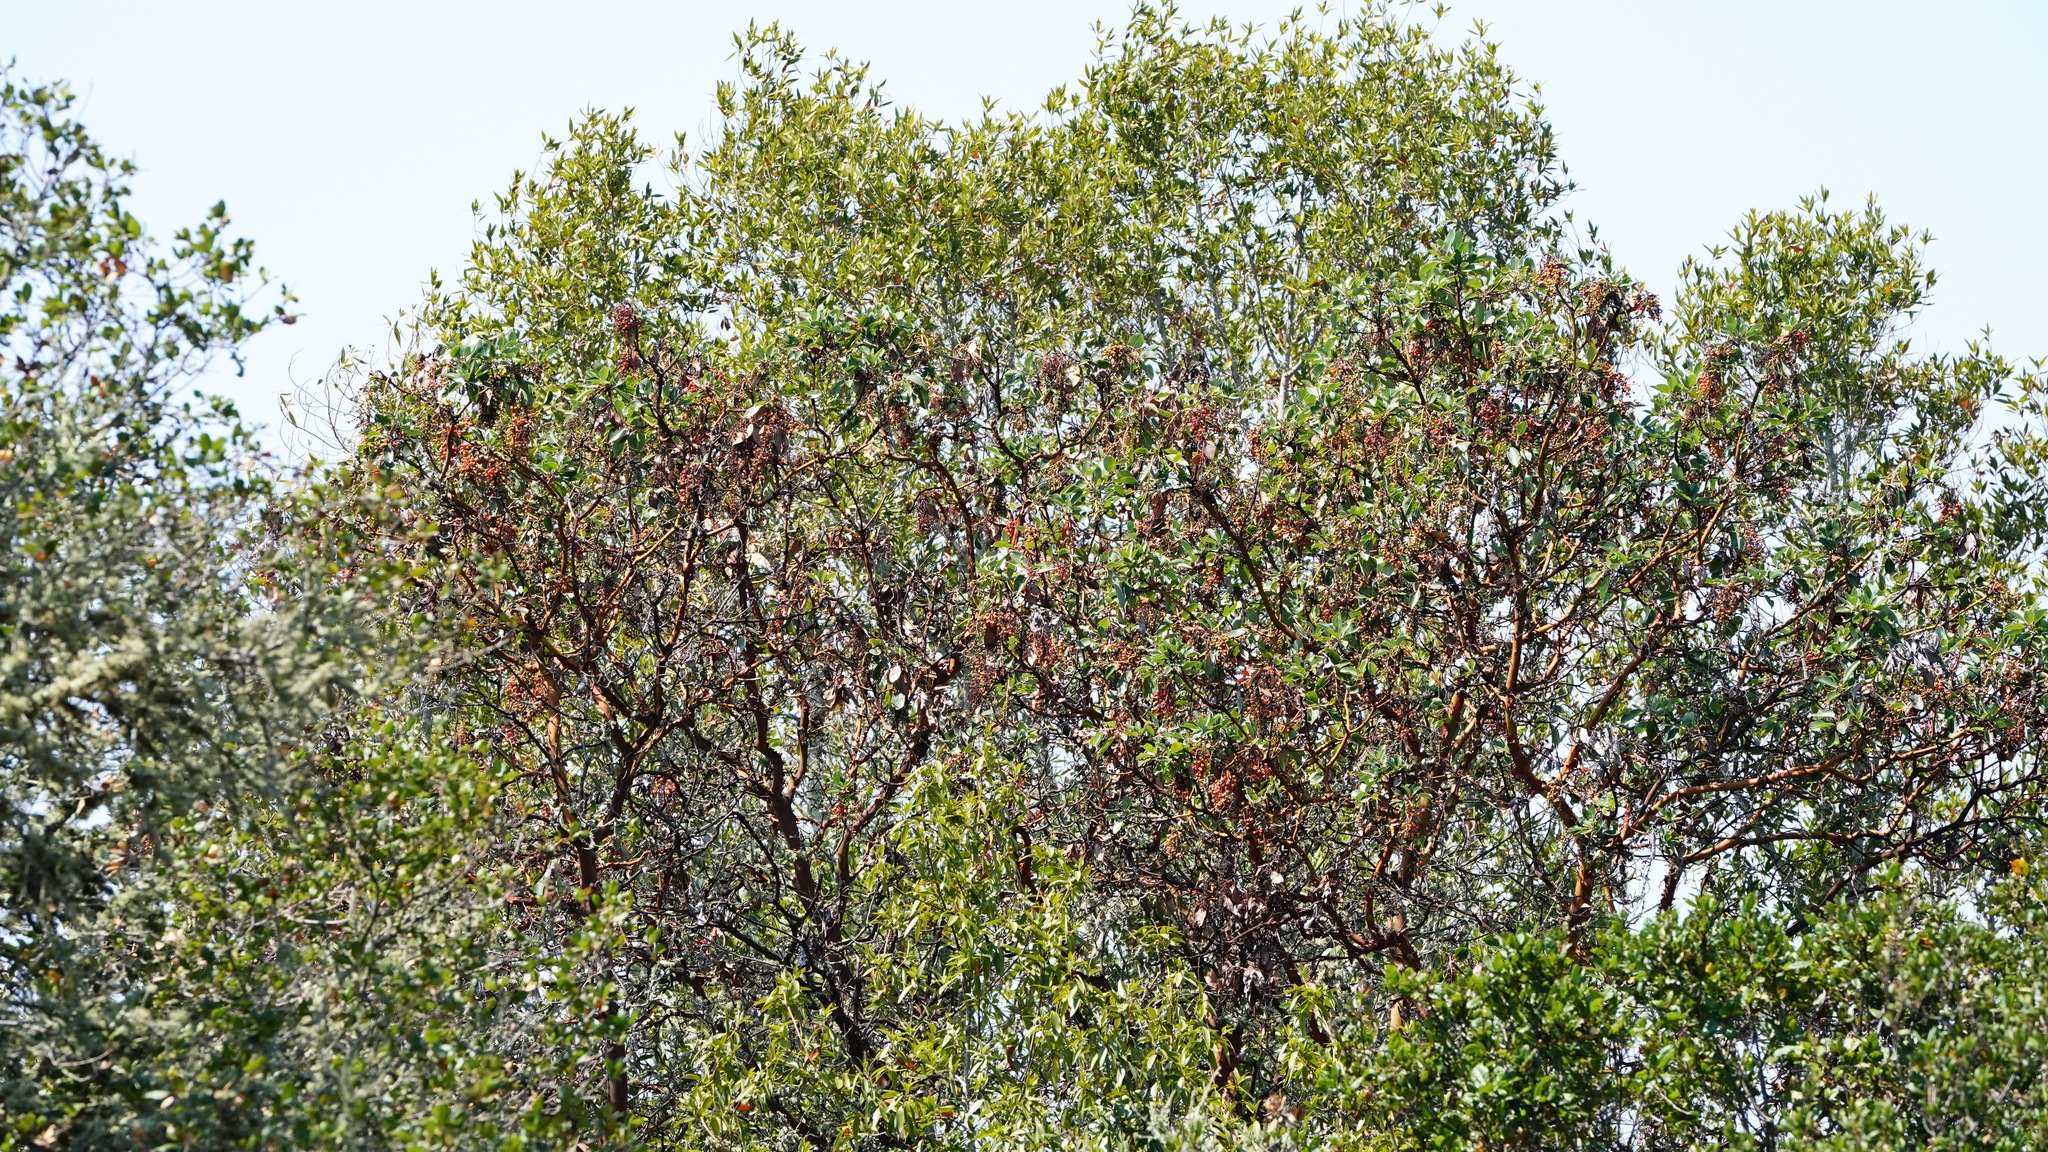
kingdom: Plantae
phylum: Tracheophyta
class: Magnoliopsida
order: Ericales
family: Ericaceae
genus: Arbutus
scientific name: Arbutus menziesii
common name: Pacific madrone
